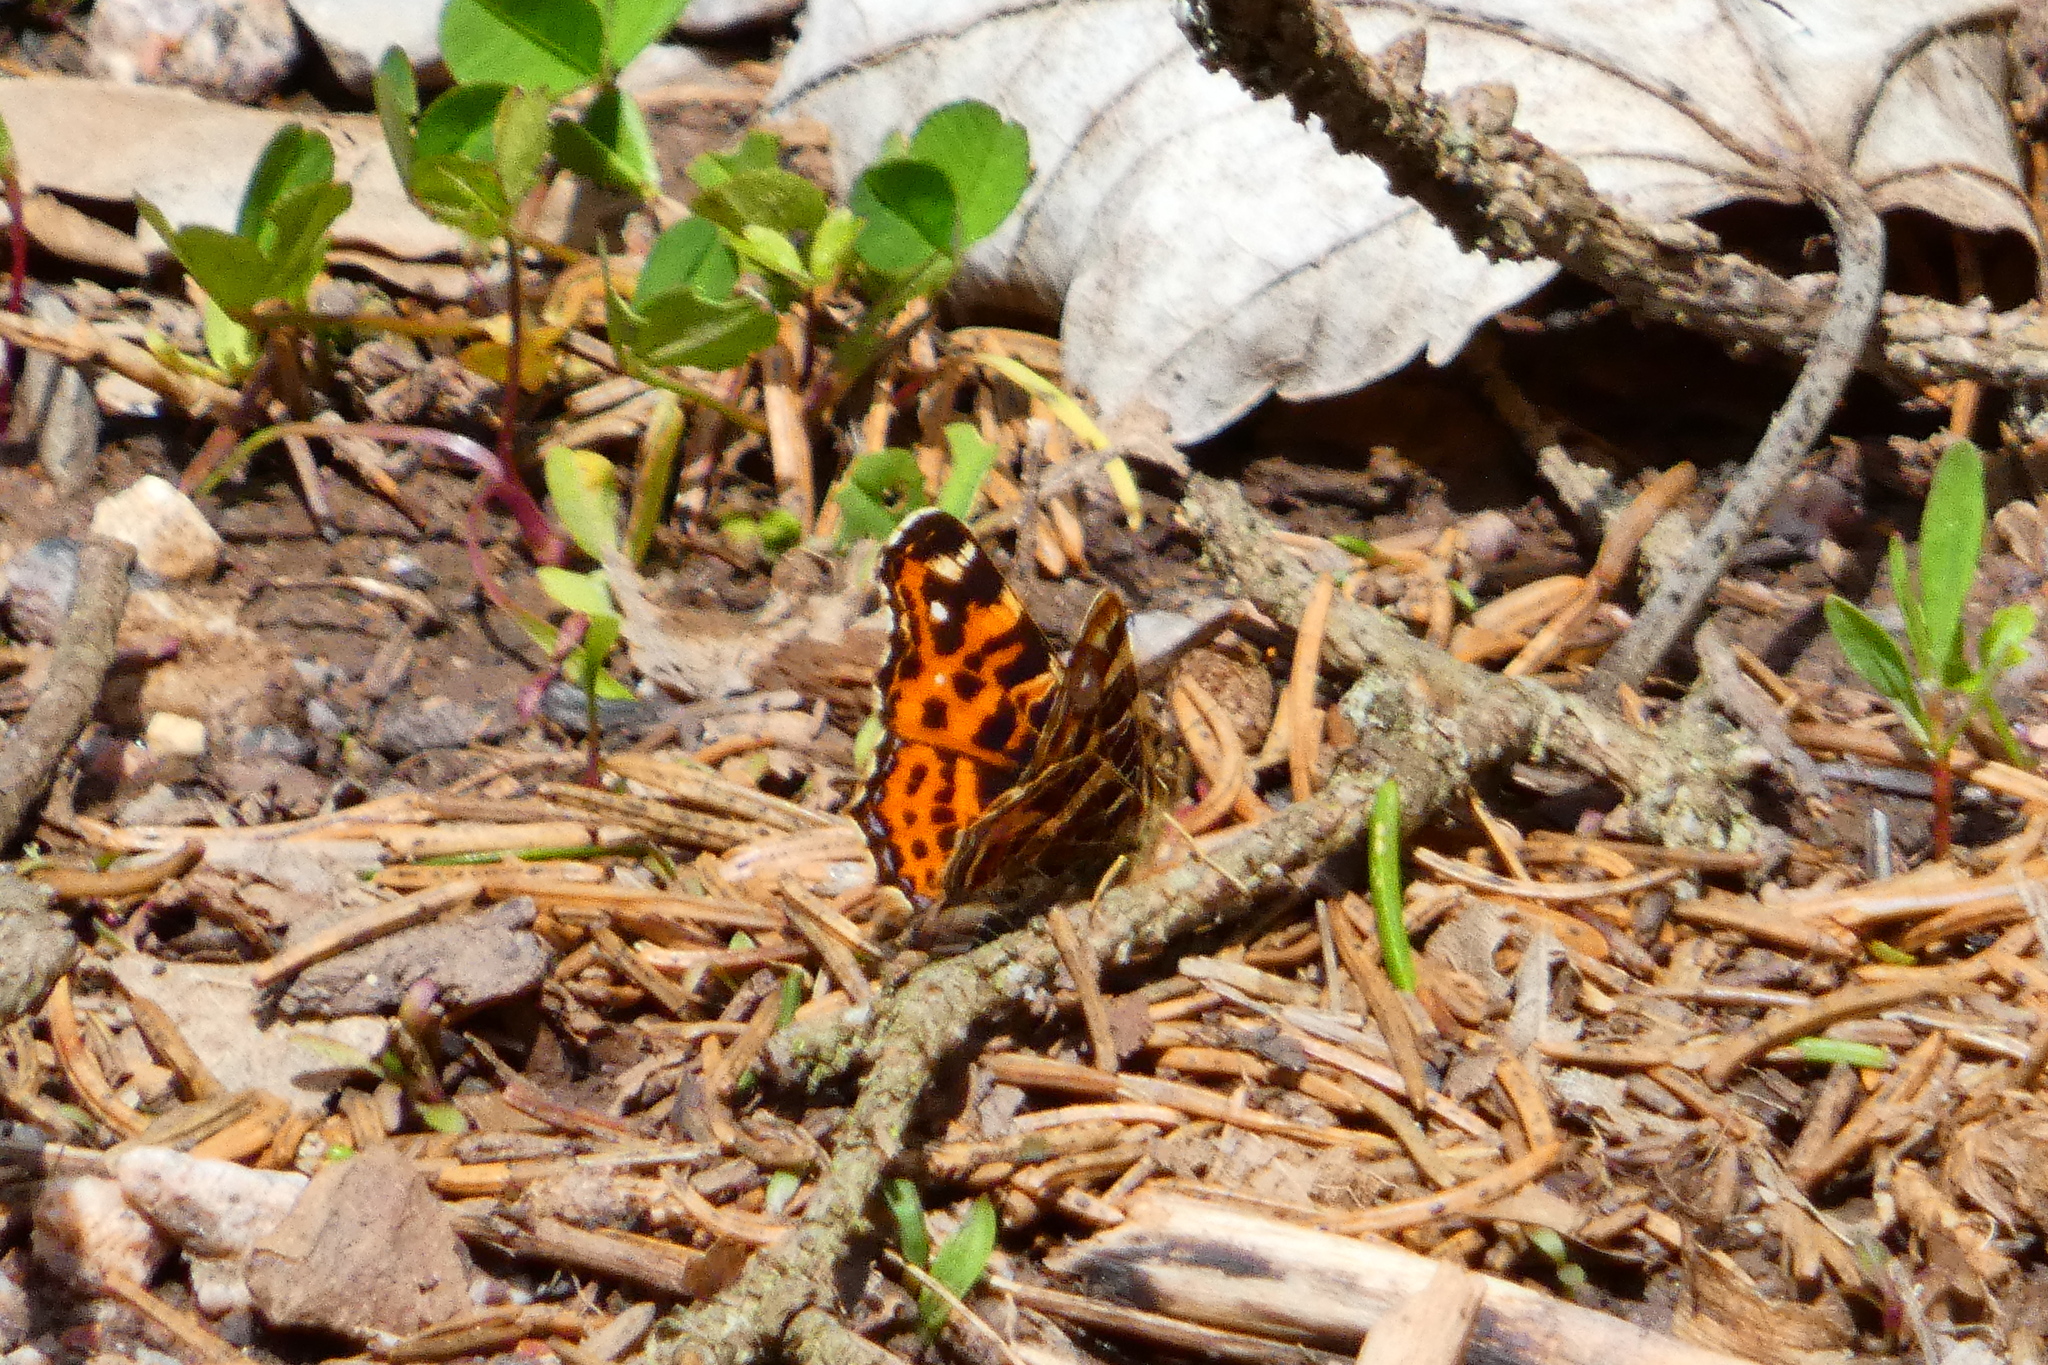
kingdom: Animalia
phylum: Arthropoda
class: Insecta
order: Lepidoptera
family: Nymphalidae
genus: Araschnia
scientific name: Araschnia levana
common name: Map butterfly
